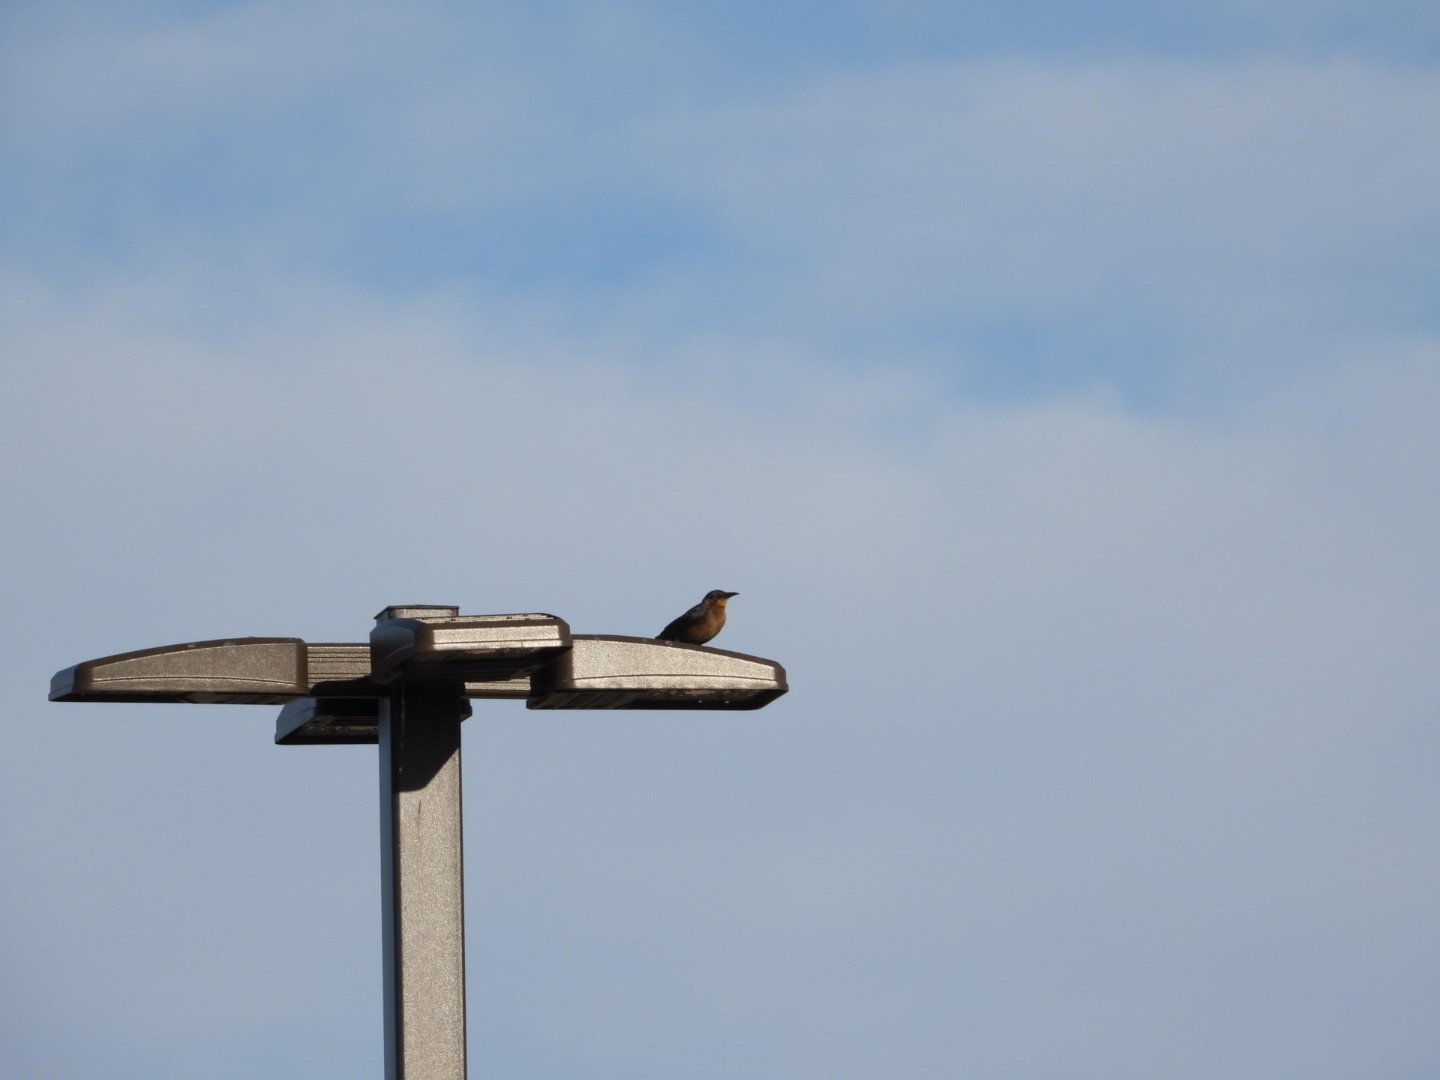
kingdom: Animalia
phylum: Chordata
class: Aves
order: Passeriformes
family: Icteridae
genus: Quiscalus
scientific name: Quiscalus mexicanus
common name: Great-tailed grackle
